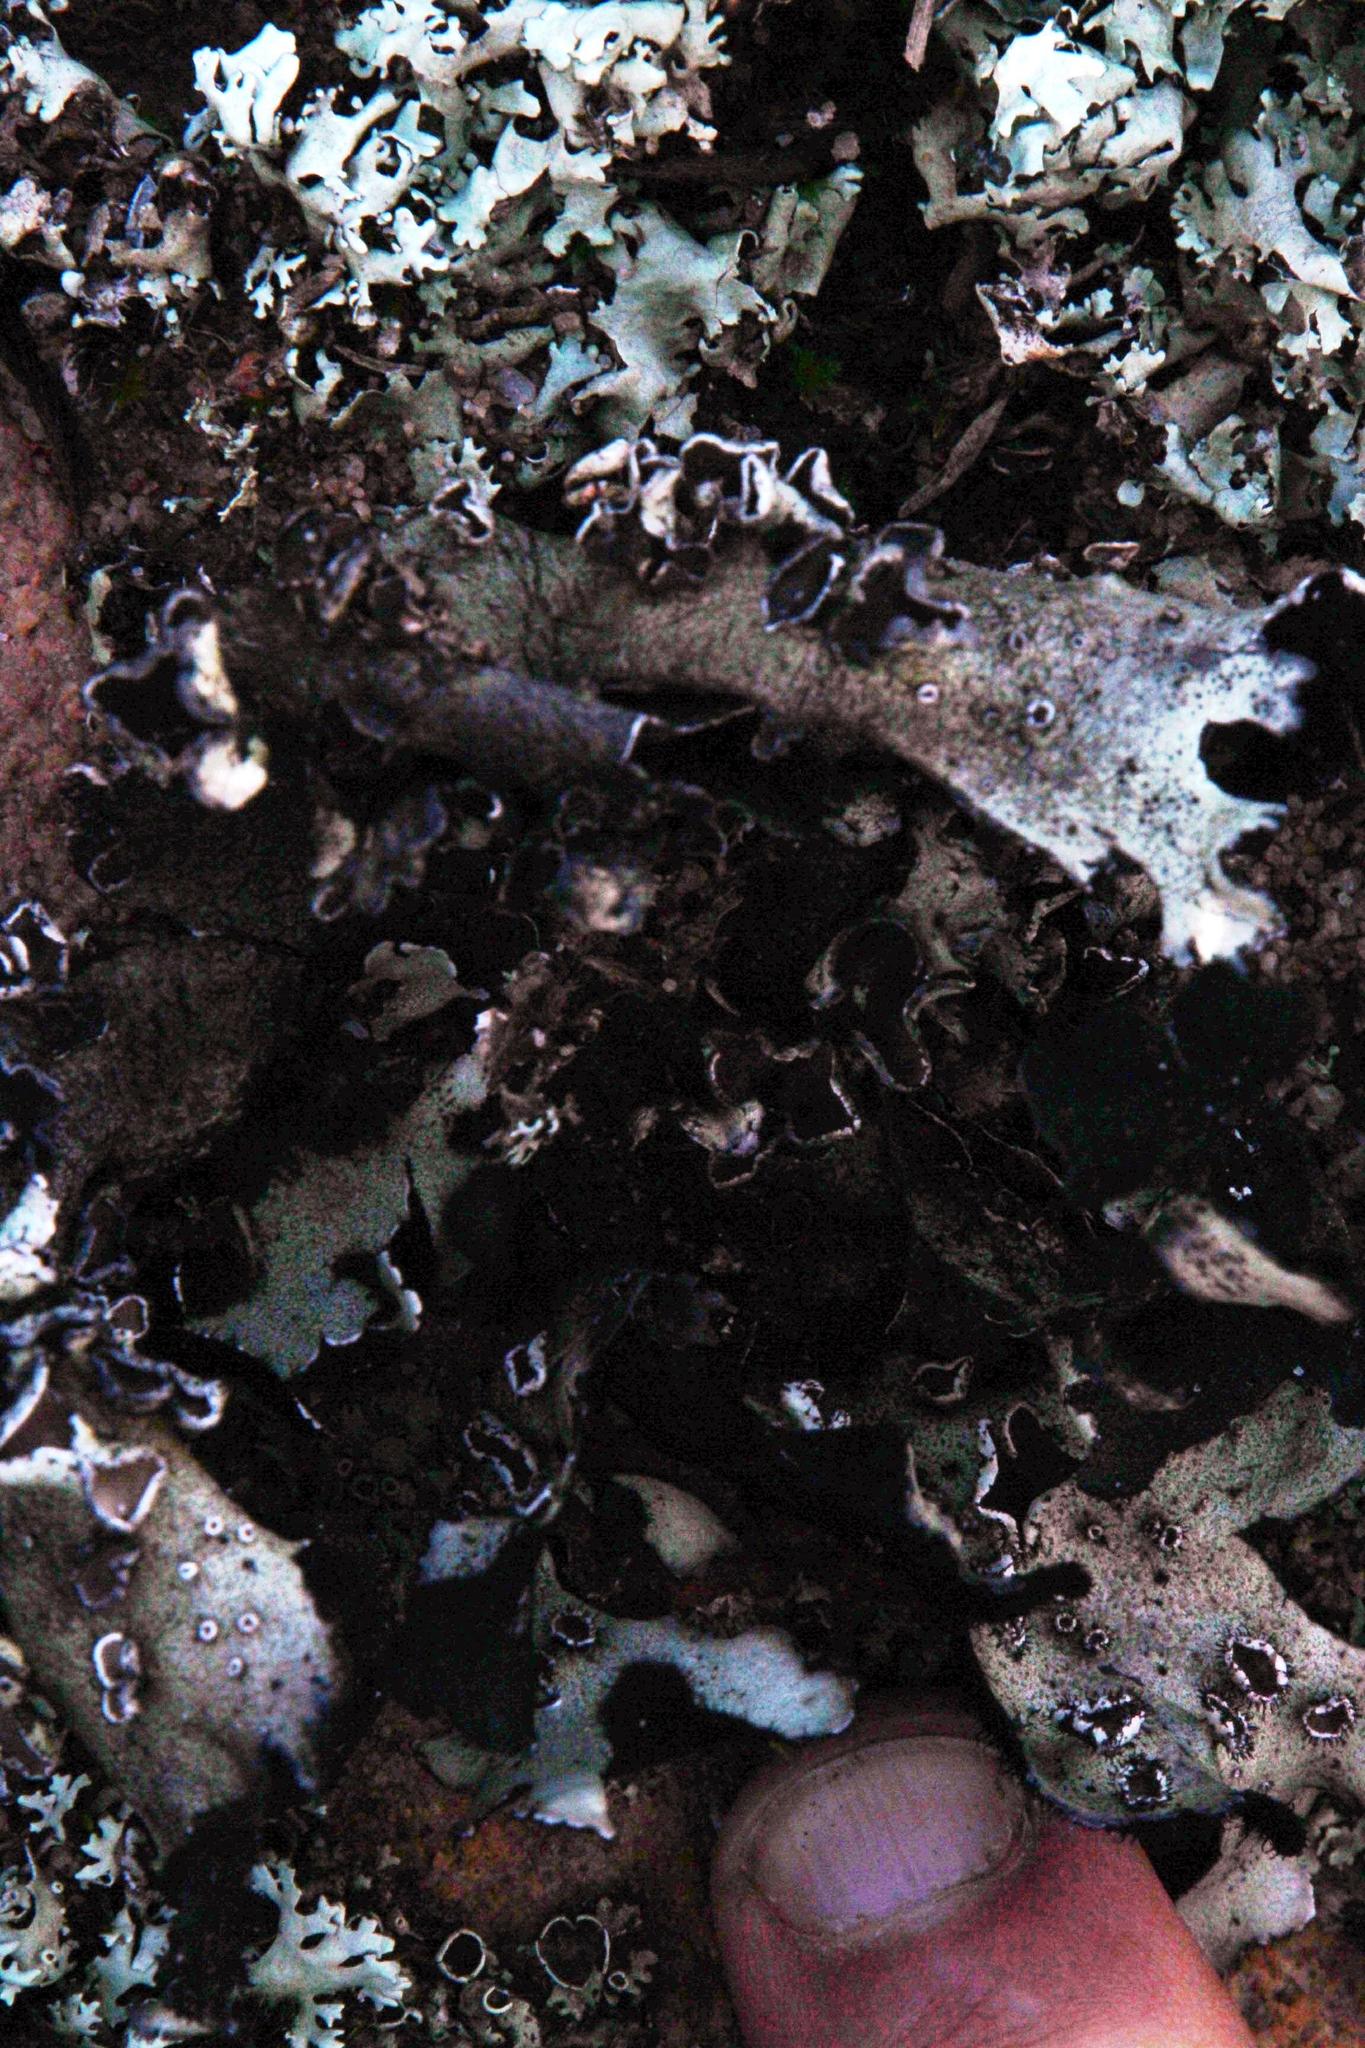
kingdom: Fungi
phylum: Ascomycota
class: Lecanoromycetes
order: Lecanorales
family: Parmeliaceae
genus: Xanthoparmelia
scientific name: Xanthoparmelia hottentotta
